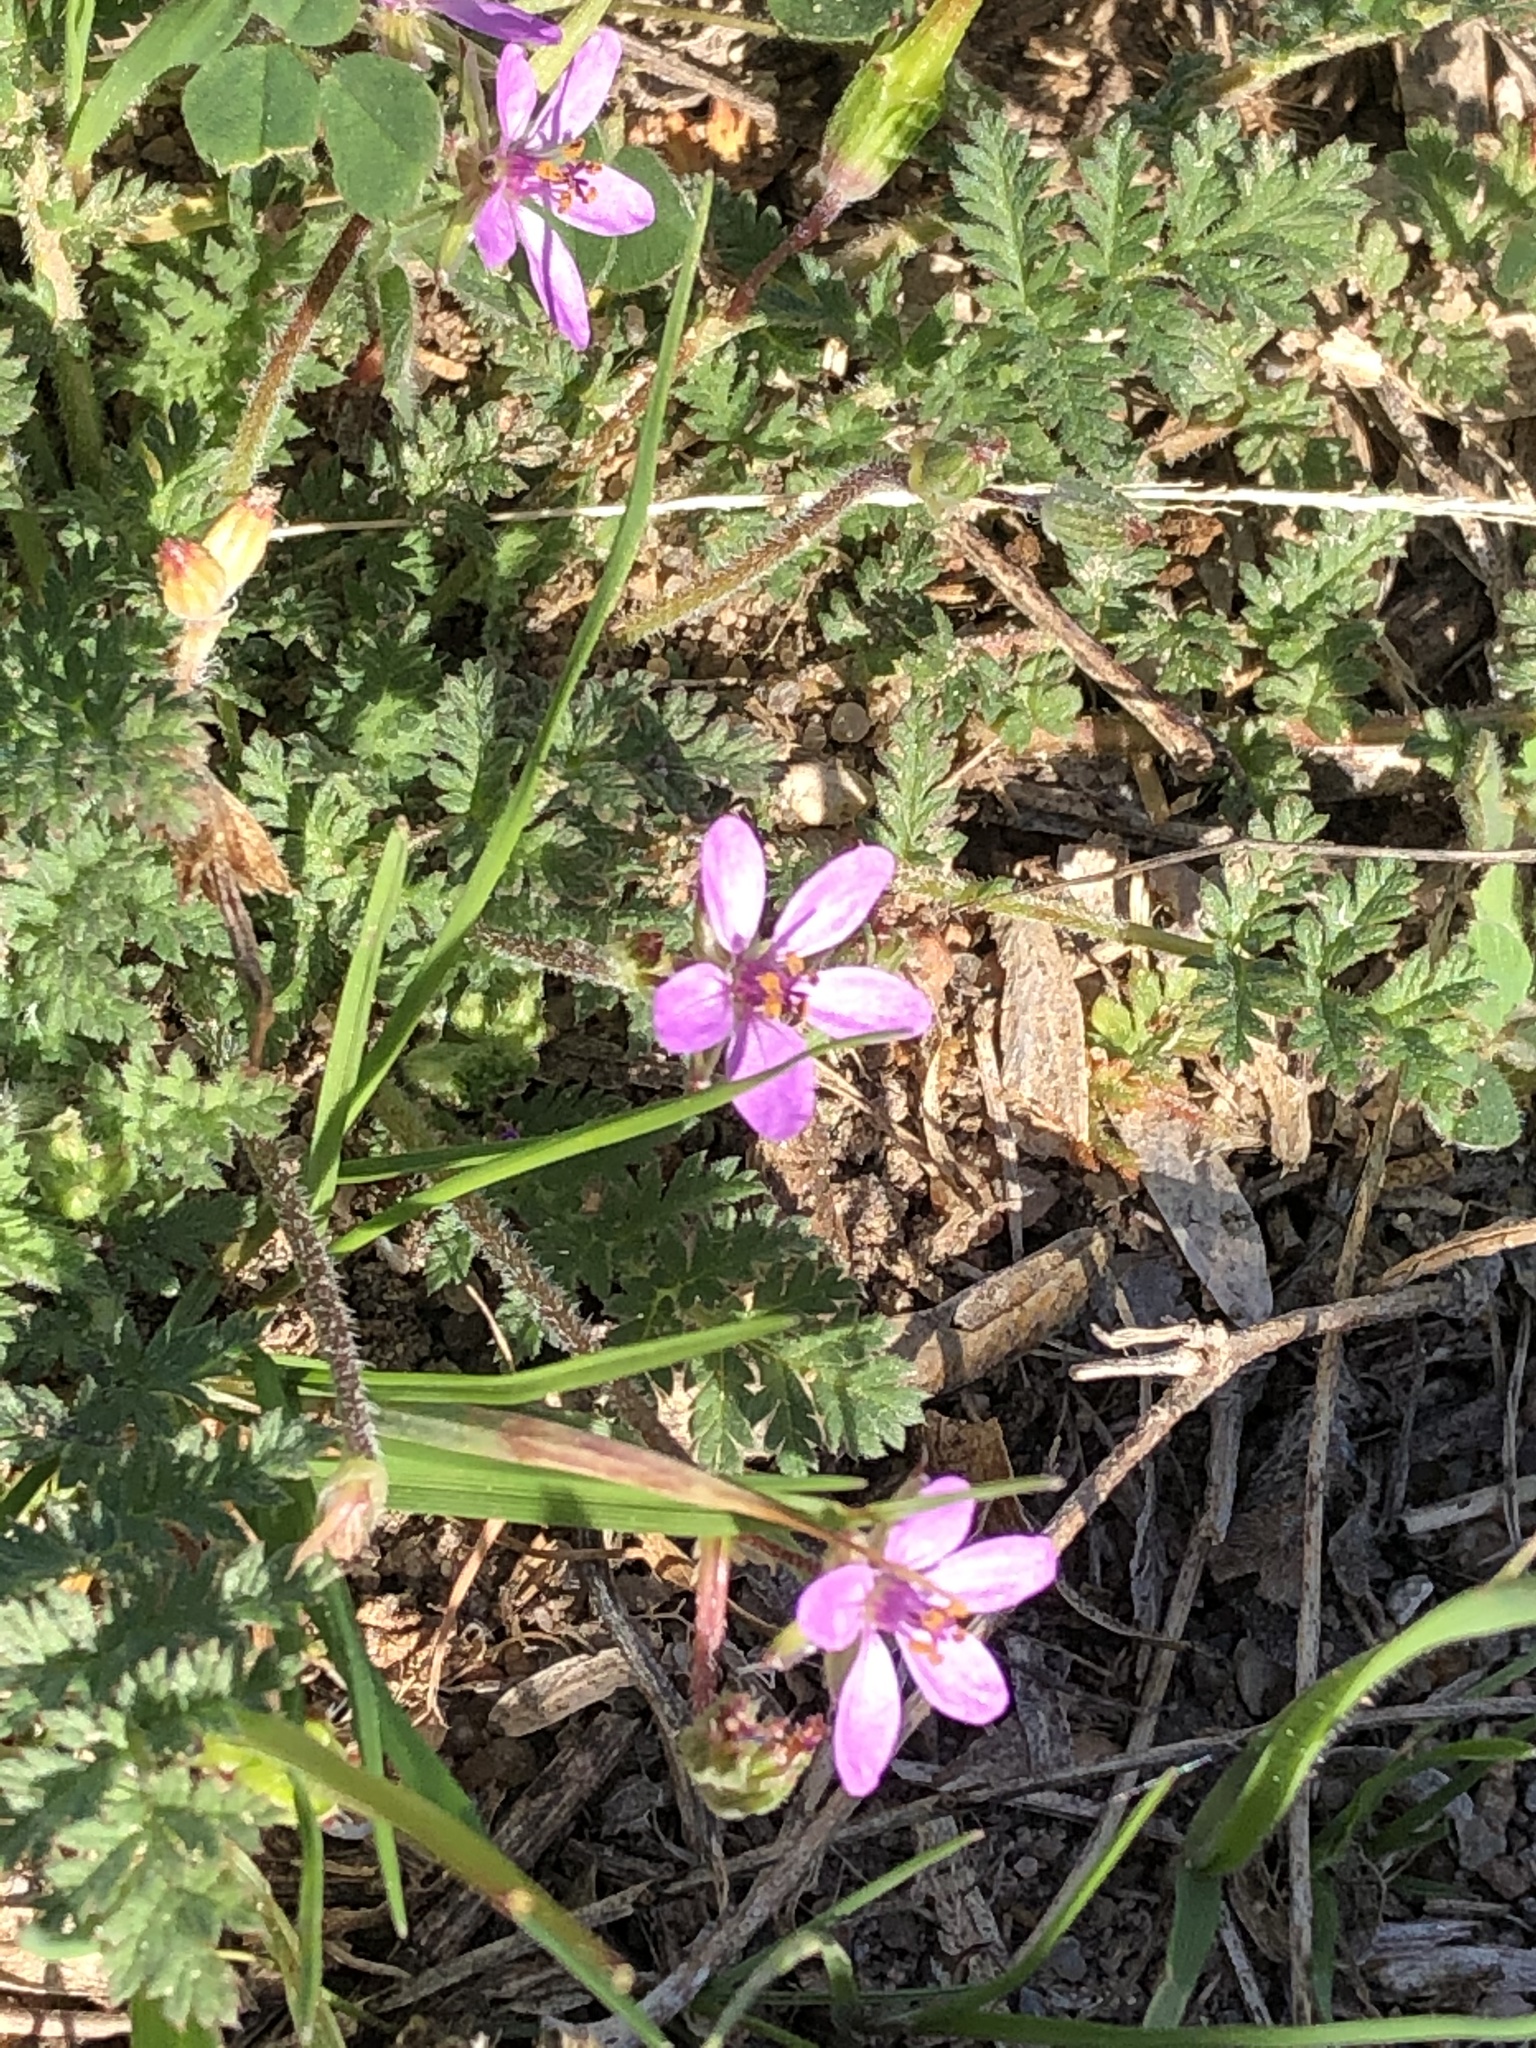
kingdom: Plantae
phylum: Tracheophyta
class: Magnoliopsida
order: Geraniales
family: Geraniaceae
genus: Erodium
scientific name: Erodium cicutarium
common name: Common stork's-bill
